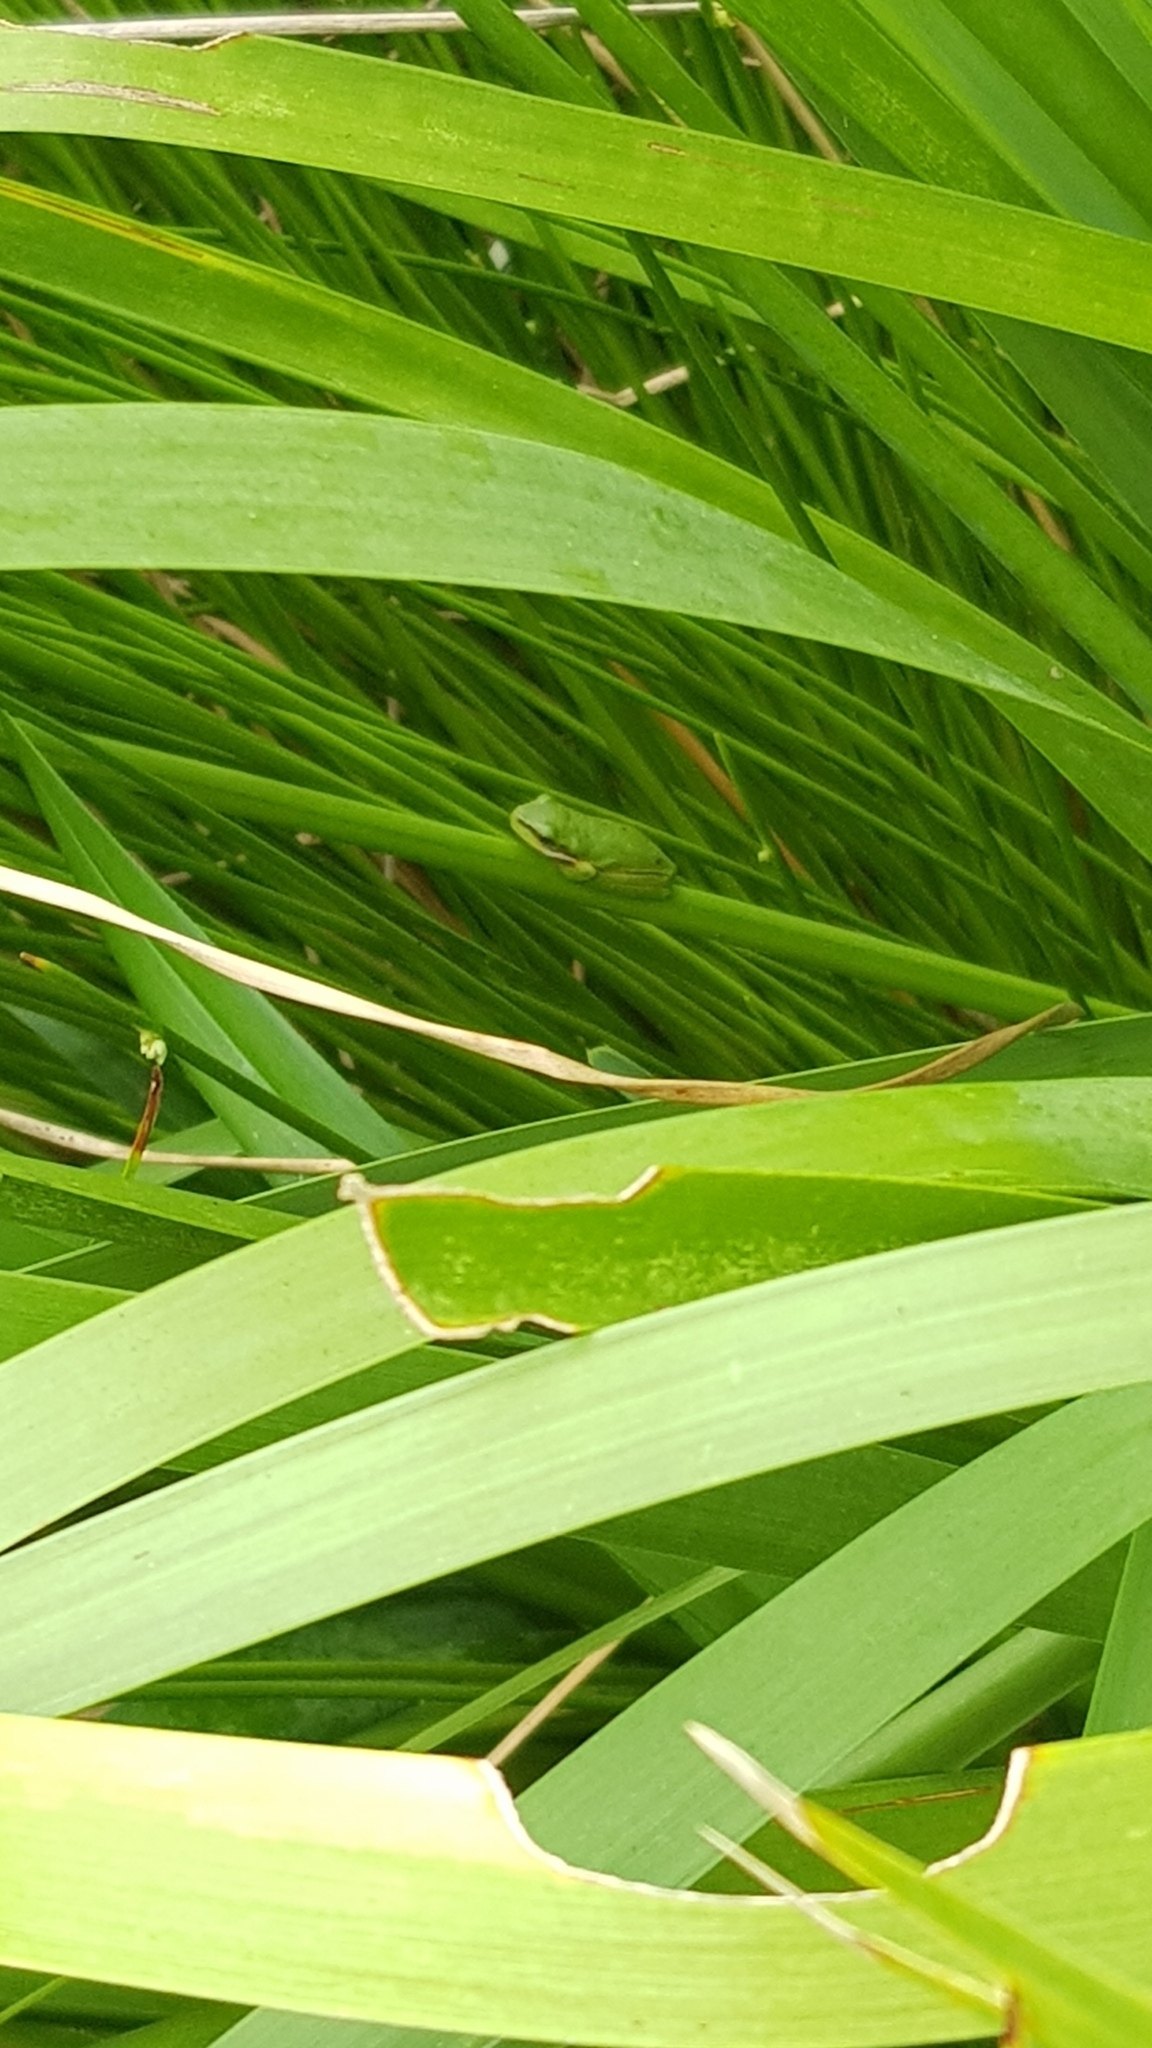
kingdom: Animalia
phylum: Chordata
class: Amphibia
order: Anura
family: Pelodryadidae
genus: Litoria
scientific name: Litoria fallax
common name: Eastern dwarf treefrog
